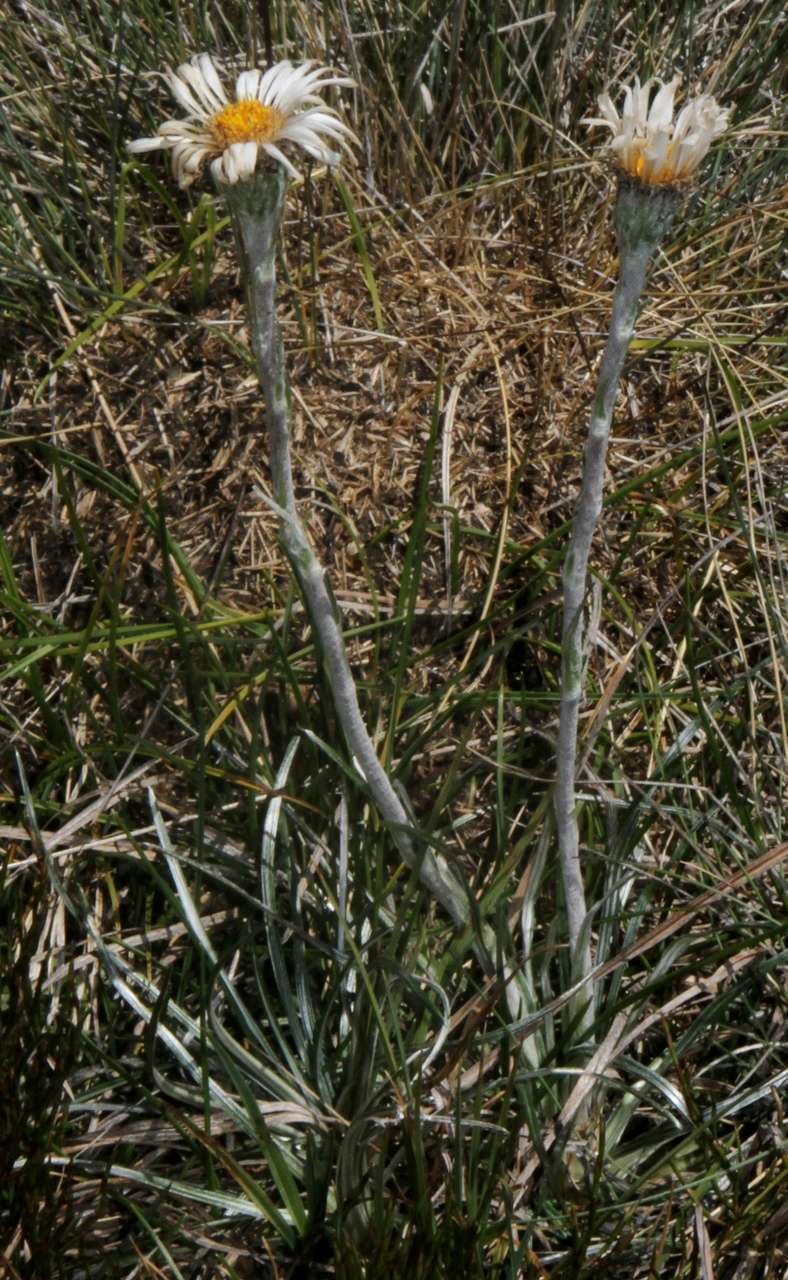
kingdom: Plantae
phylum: Tracheophyta
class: Magnoliopsida
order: Asterales
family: Asteraceae
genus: Celmisia
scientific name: Celmisia pugioniformis
